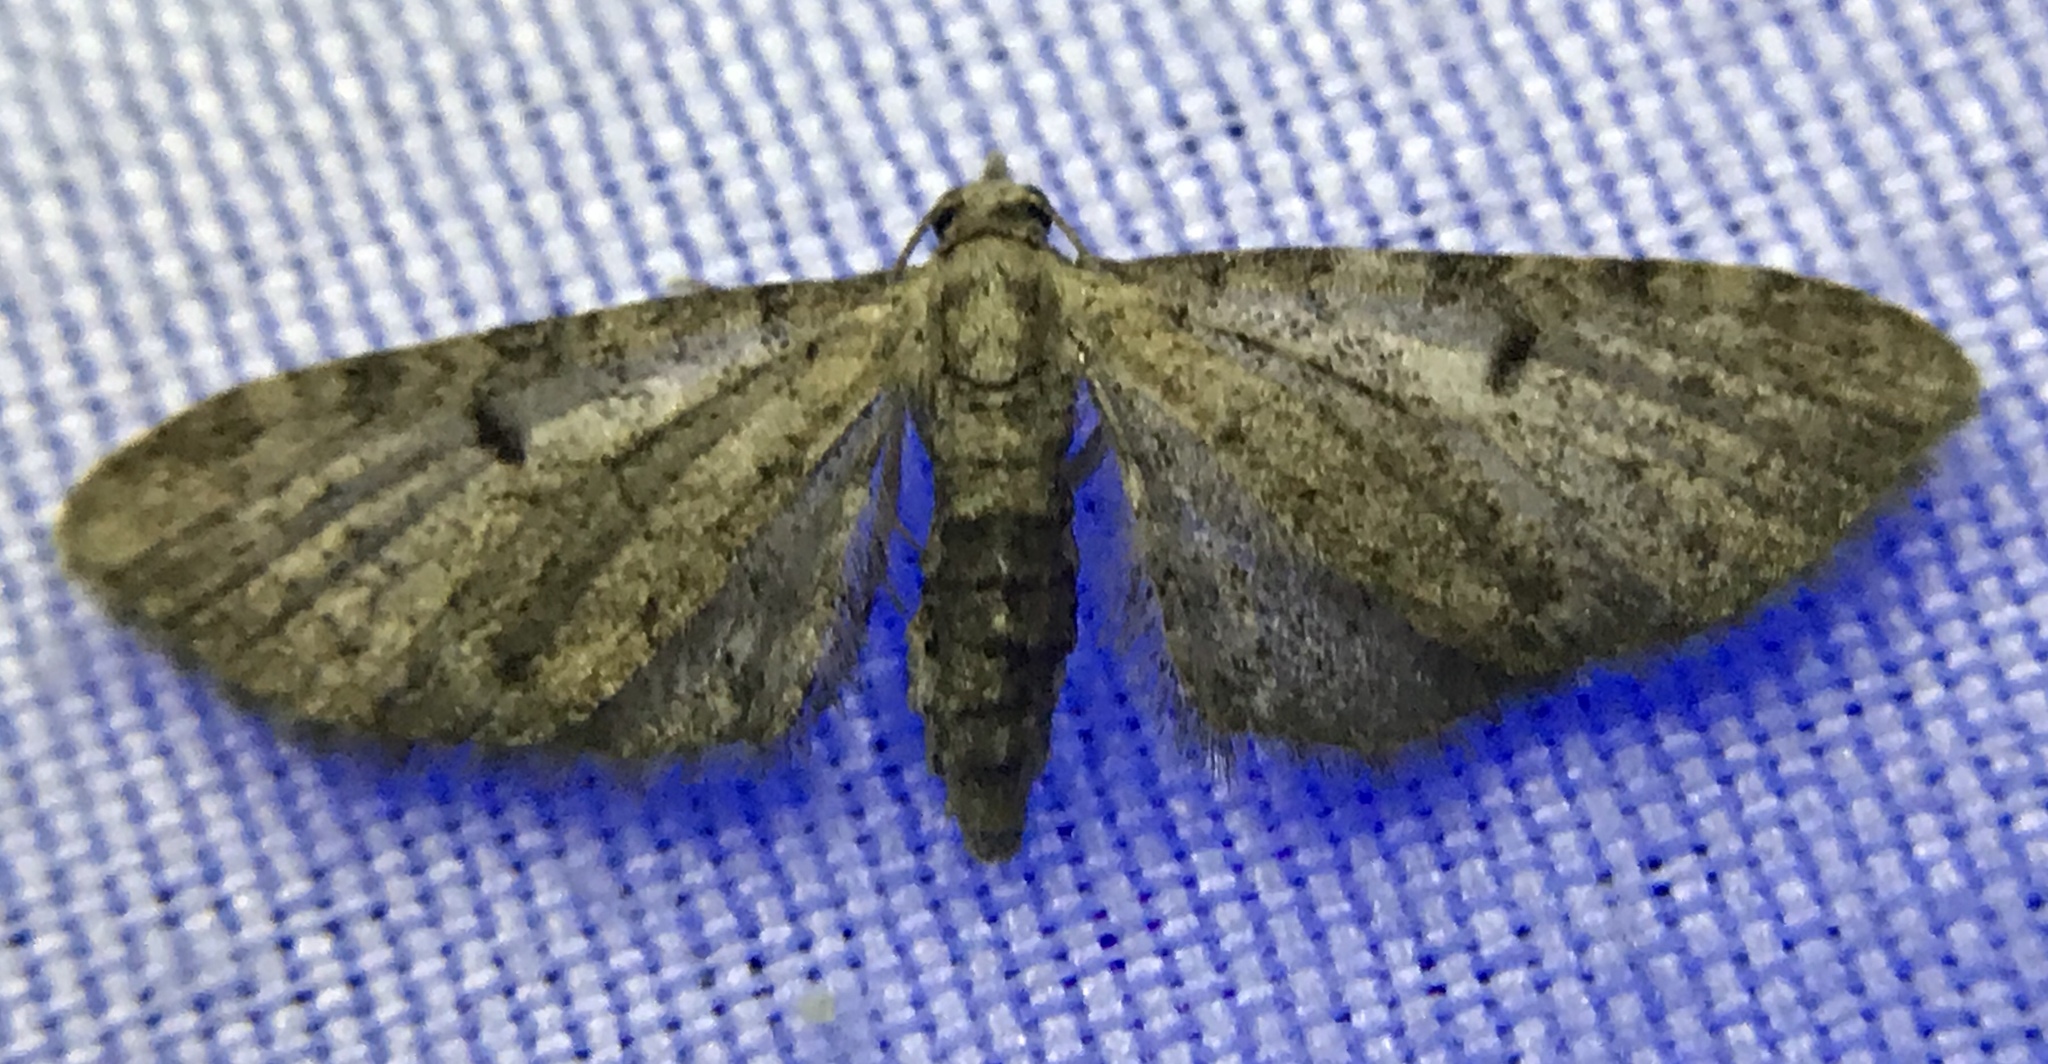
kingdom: Animalia
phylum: Arthropoda
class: Insecta
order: Lepidoptera
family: Geometridae
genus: Eupithecia
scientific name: Eupithecia
